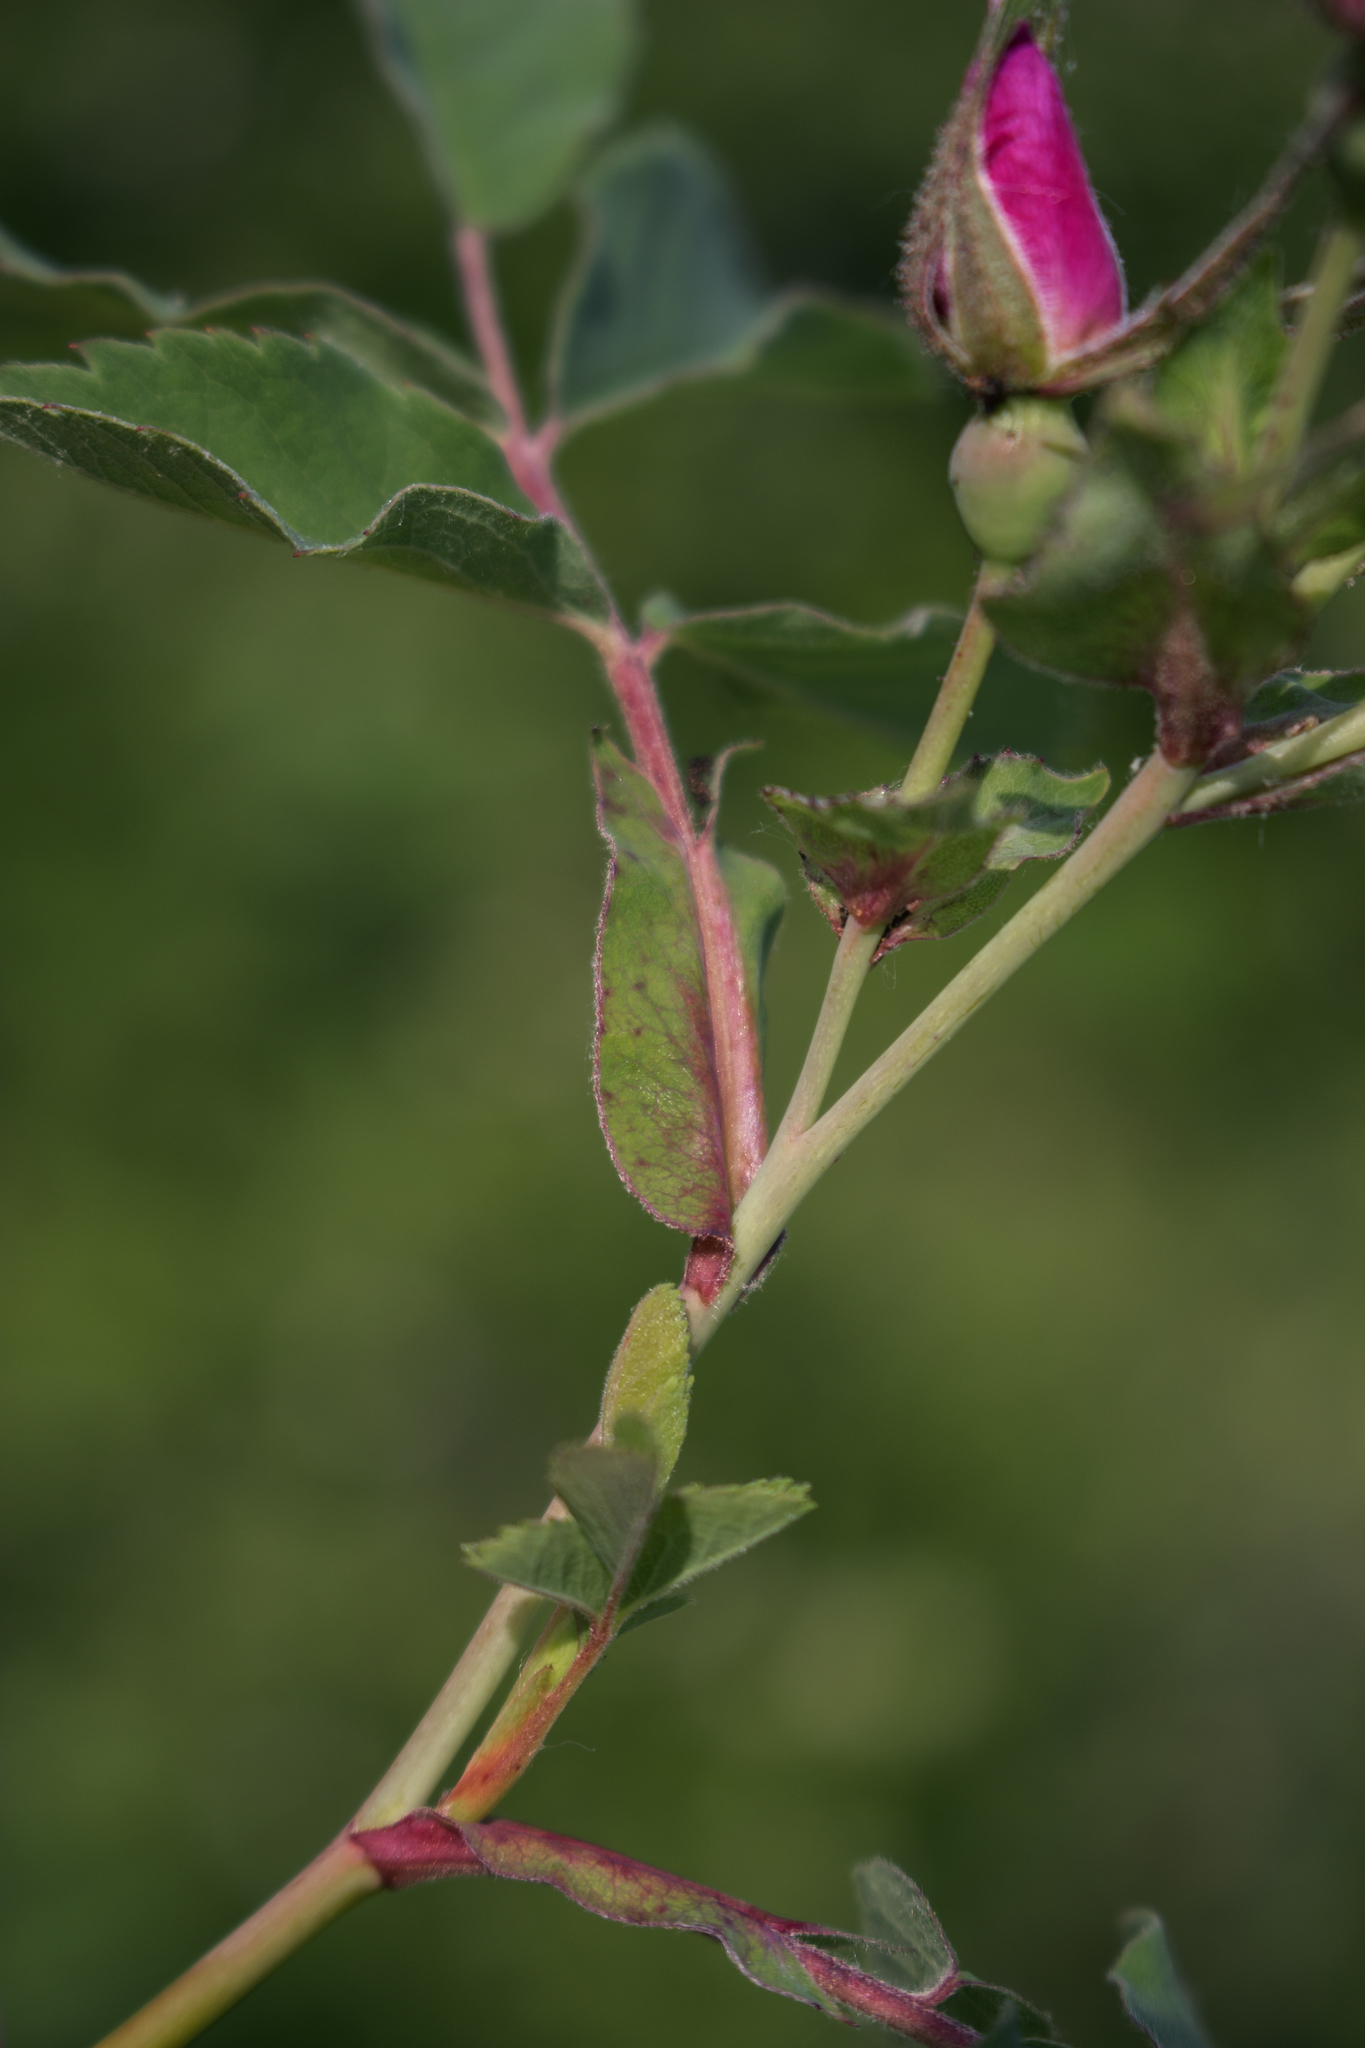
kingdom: Plantae
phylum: Tracheophyta
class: Magnoliopsida
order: Rosales
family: Rosaceae
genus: Rosa
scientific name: Rosa blanda
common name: Smooth rose
